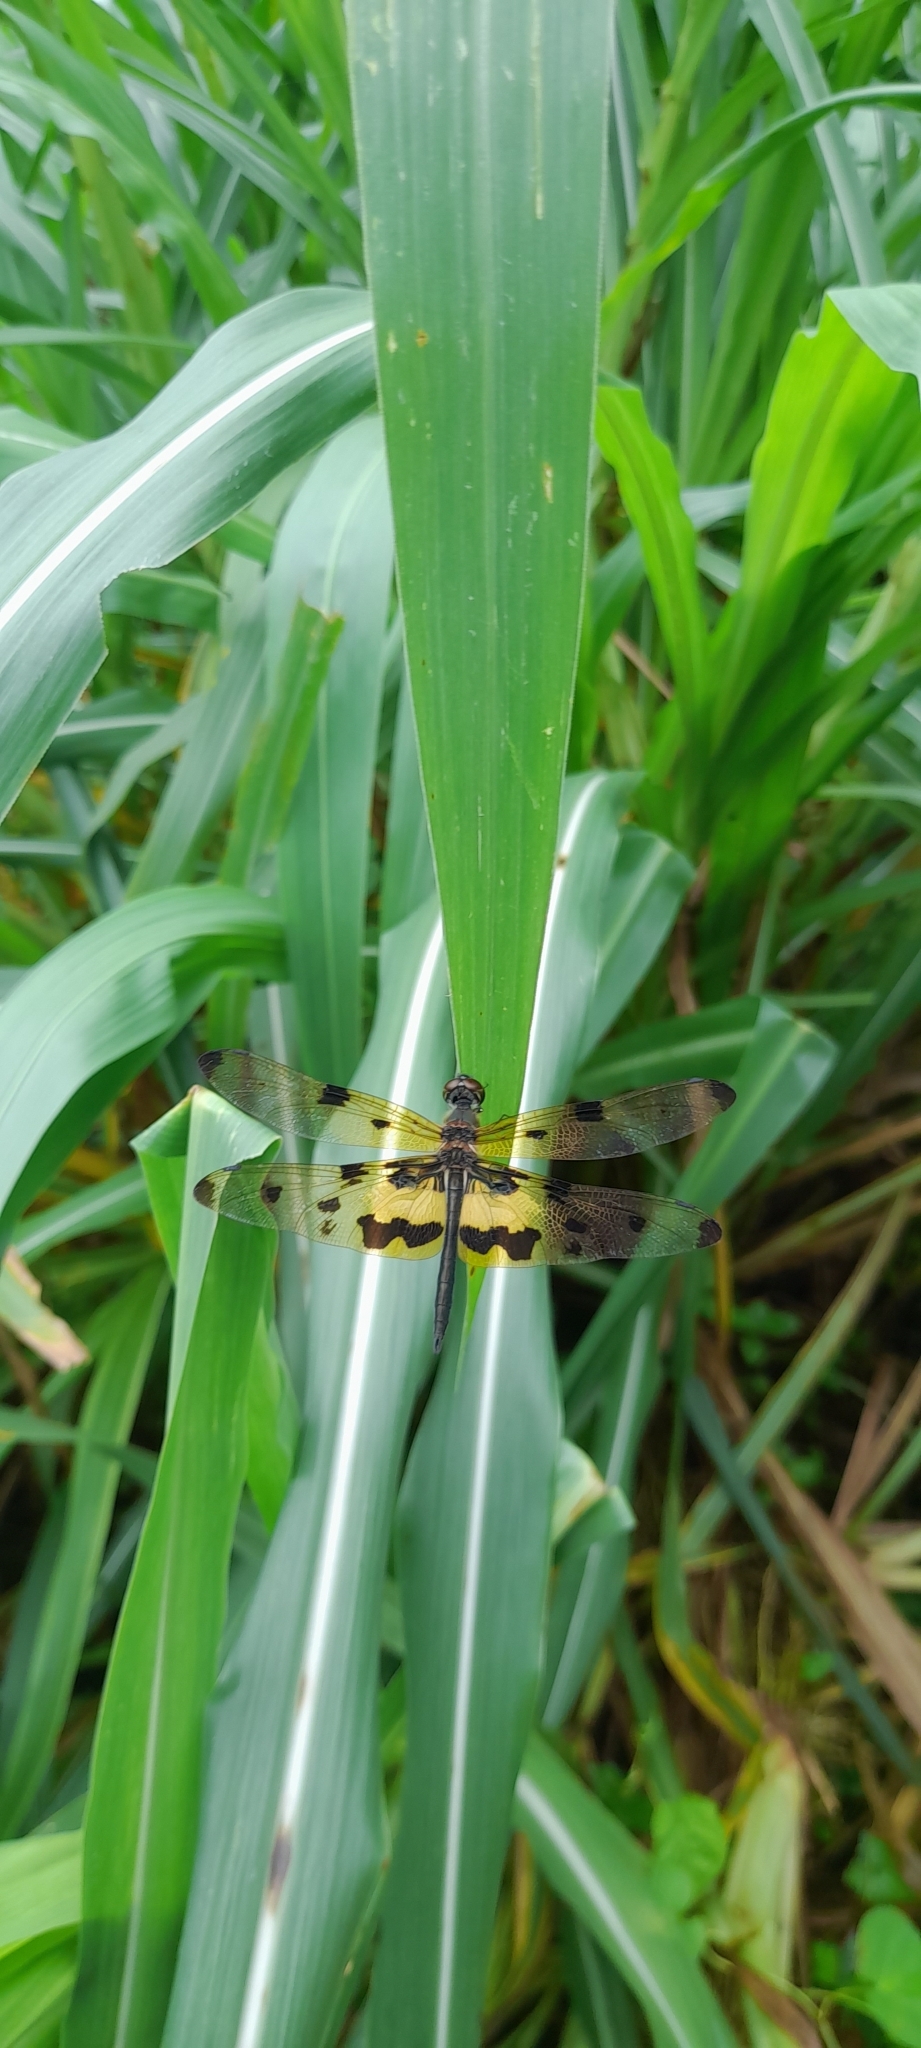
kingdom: Animalia
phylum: Arthropoda
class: Insecta
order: Odonata
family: Libellulidae
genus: Rhyothemis
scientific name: Rhyothemis variegata
